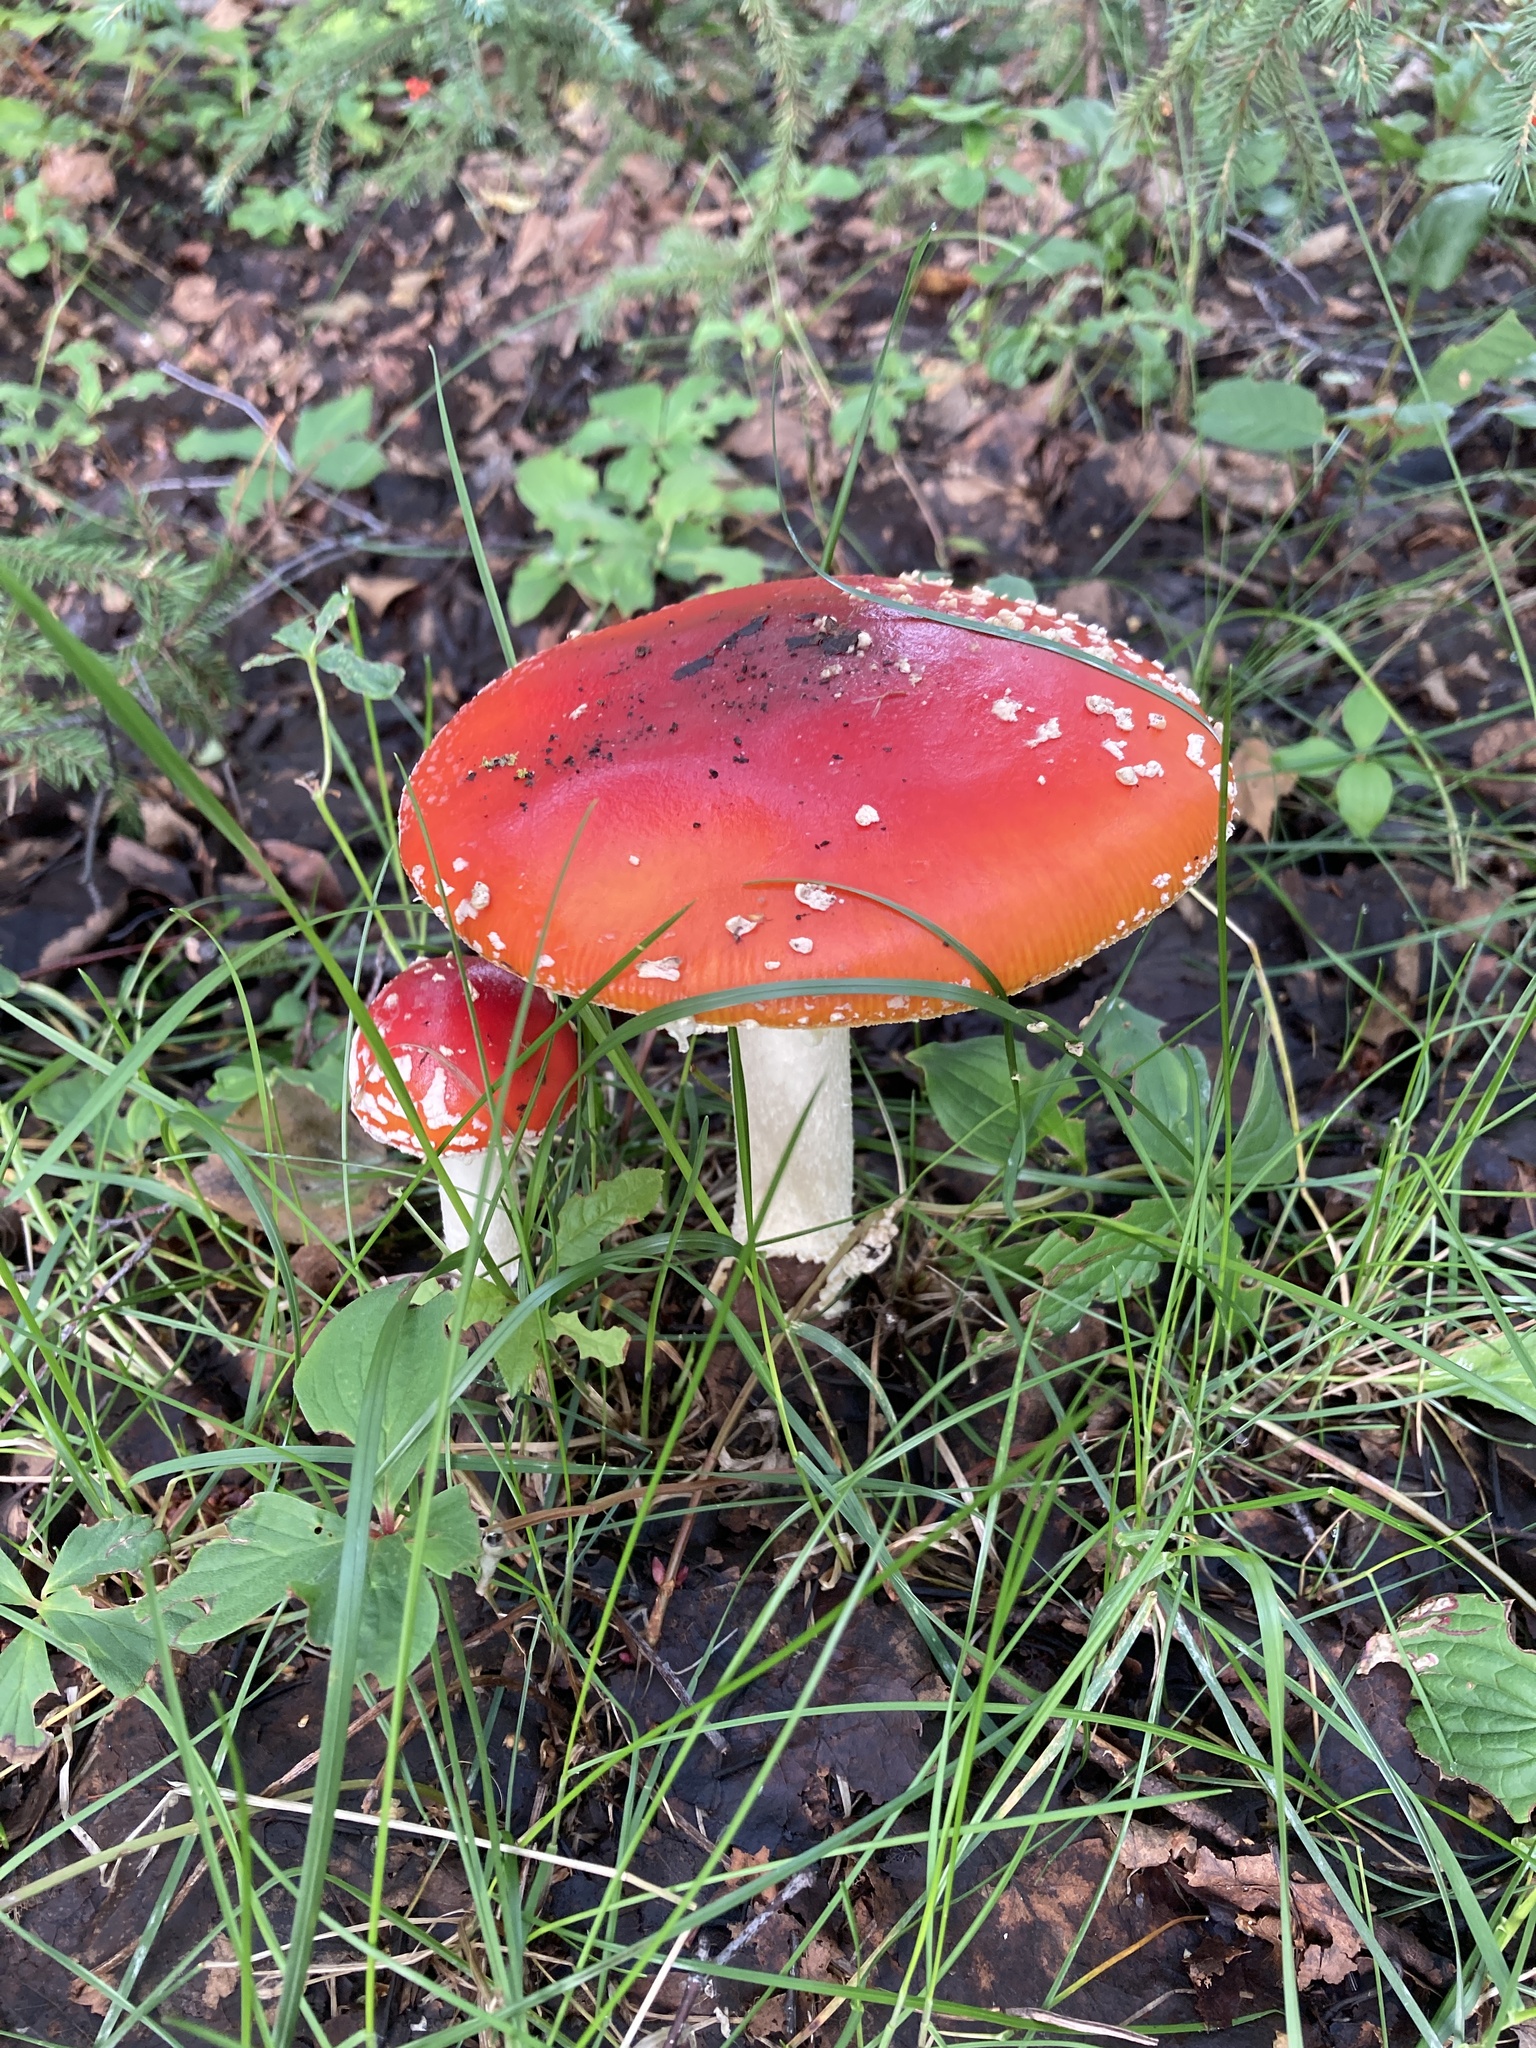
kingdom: Fungi
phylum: Basidiomycota
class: Agaricomycetes
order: Agaricales
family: Amanitaceae
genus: Amanita
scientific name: Amanita muscaria
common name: Fly agaric
